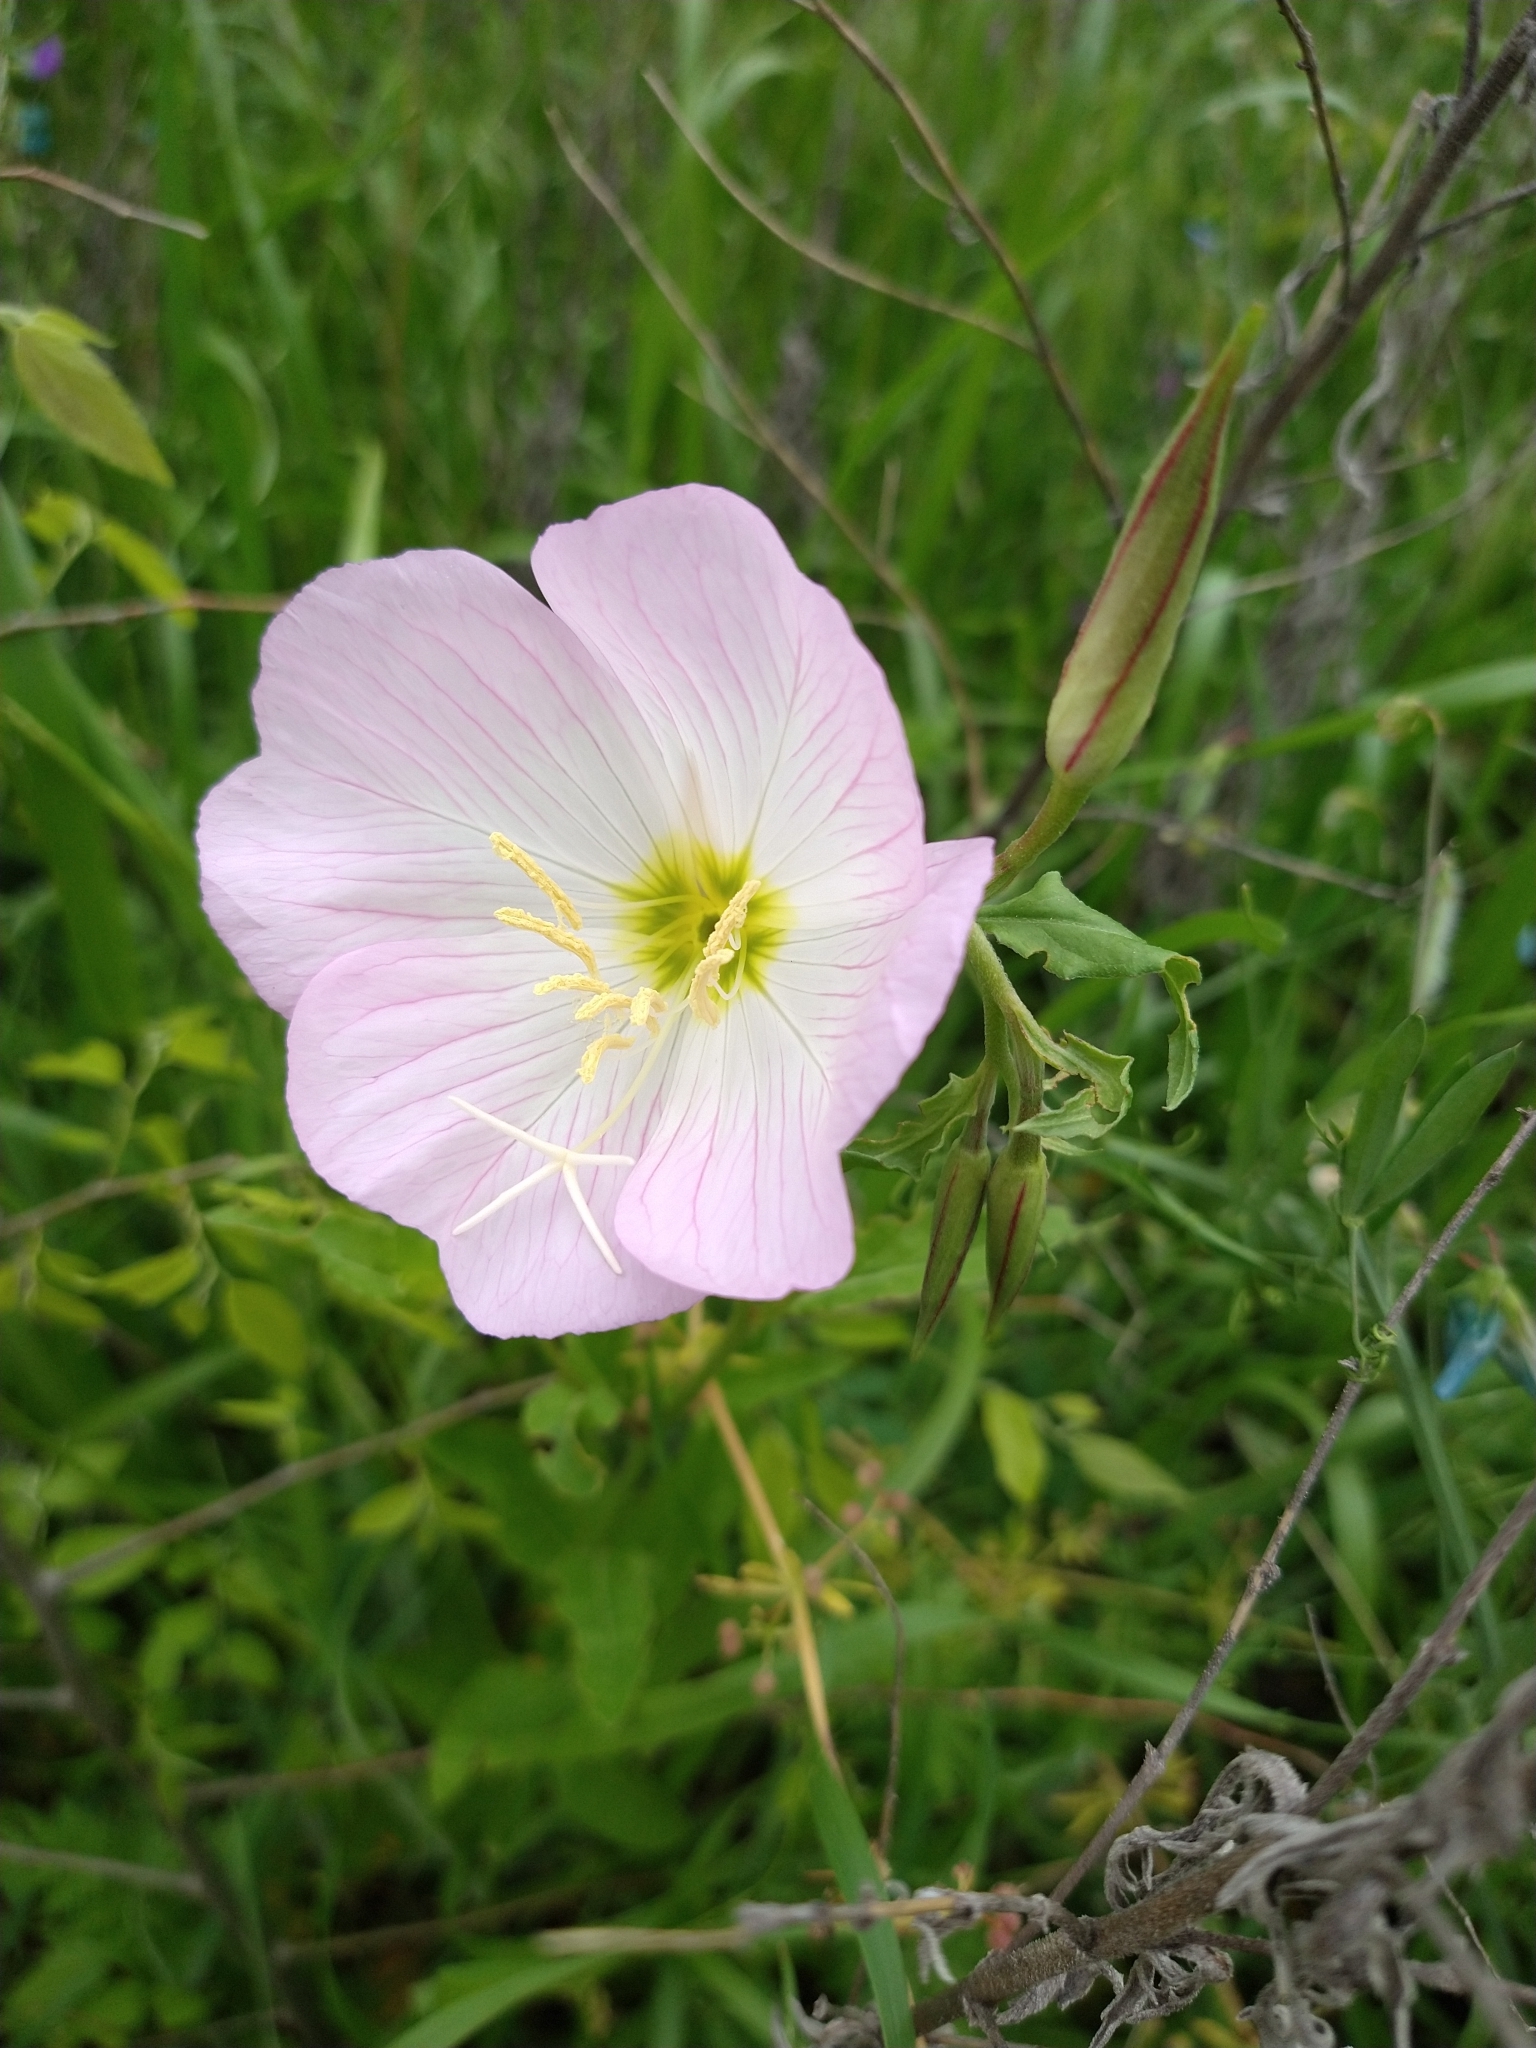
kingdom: Plantae
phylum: Tracheophyta
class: Magnoliopsida
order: Myrtales
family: Onagraceae
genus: Oenothera
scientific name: Oenothera speciosa
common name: White evening-primrose
